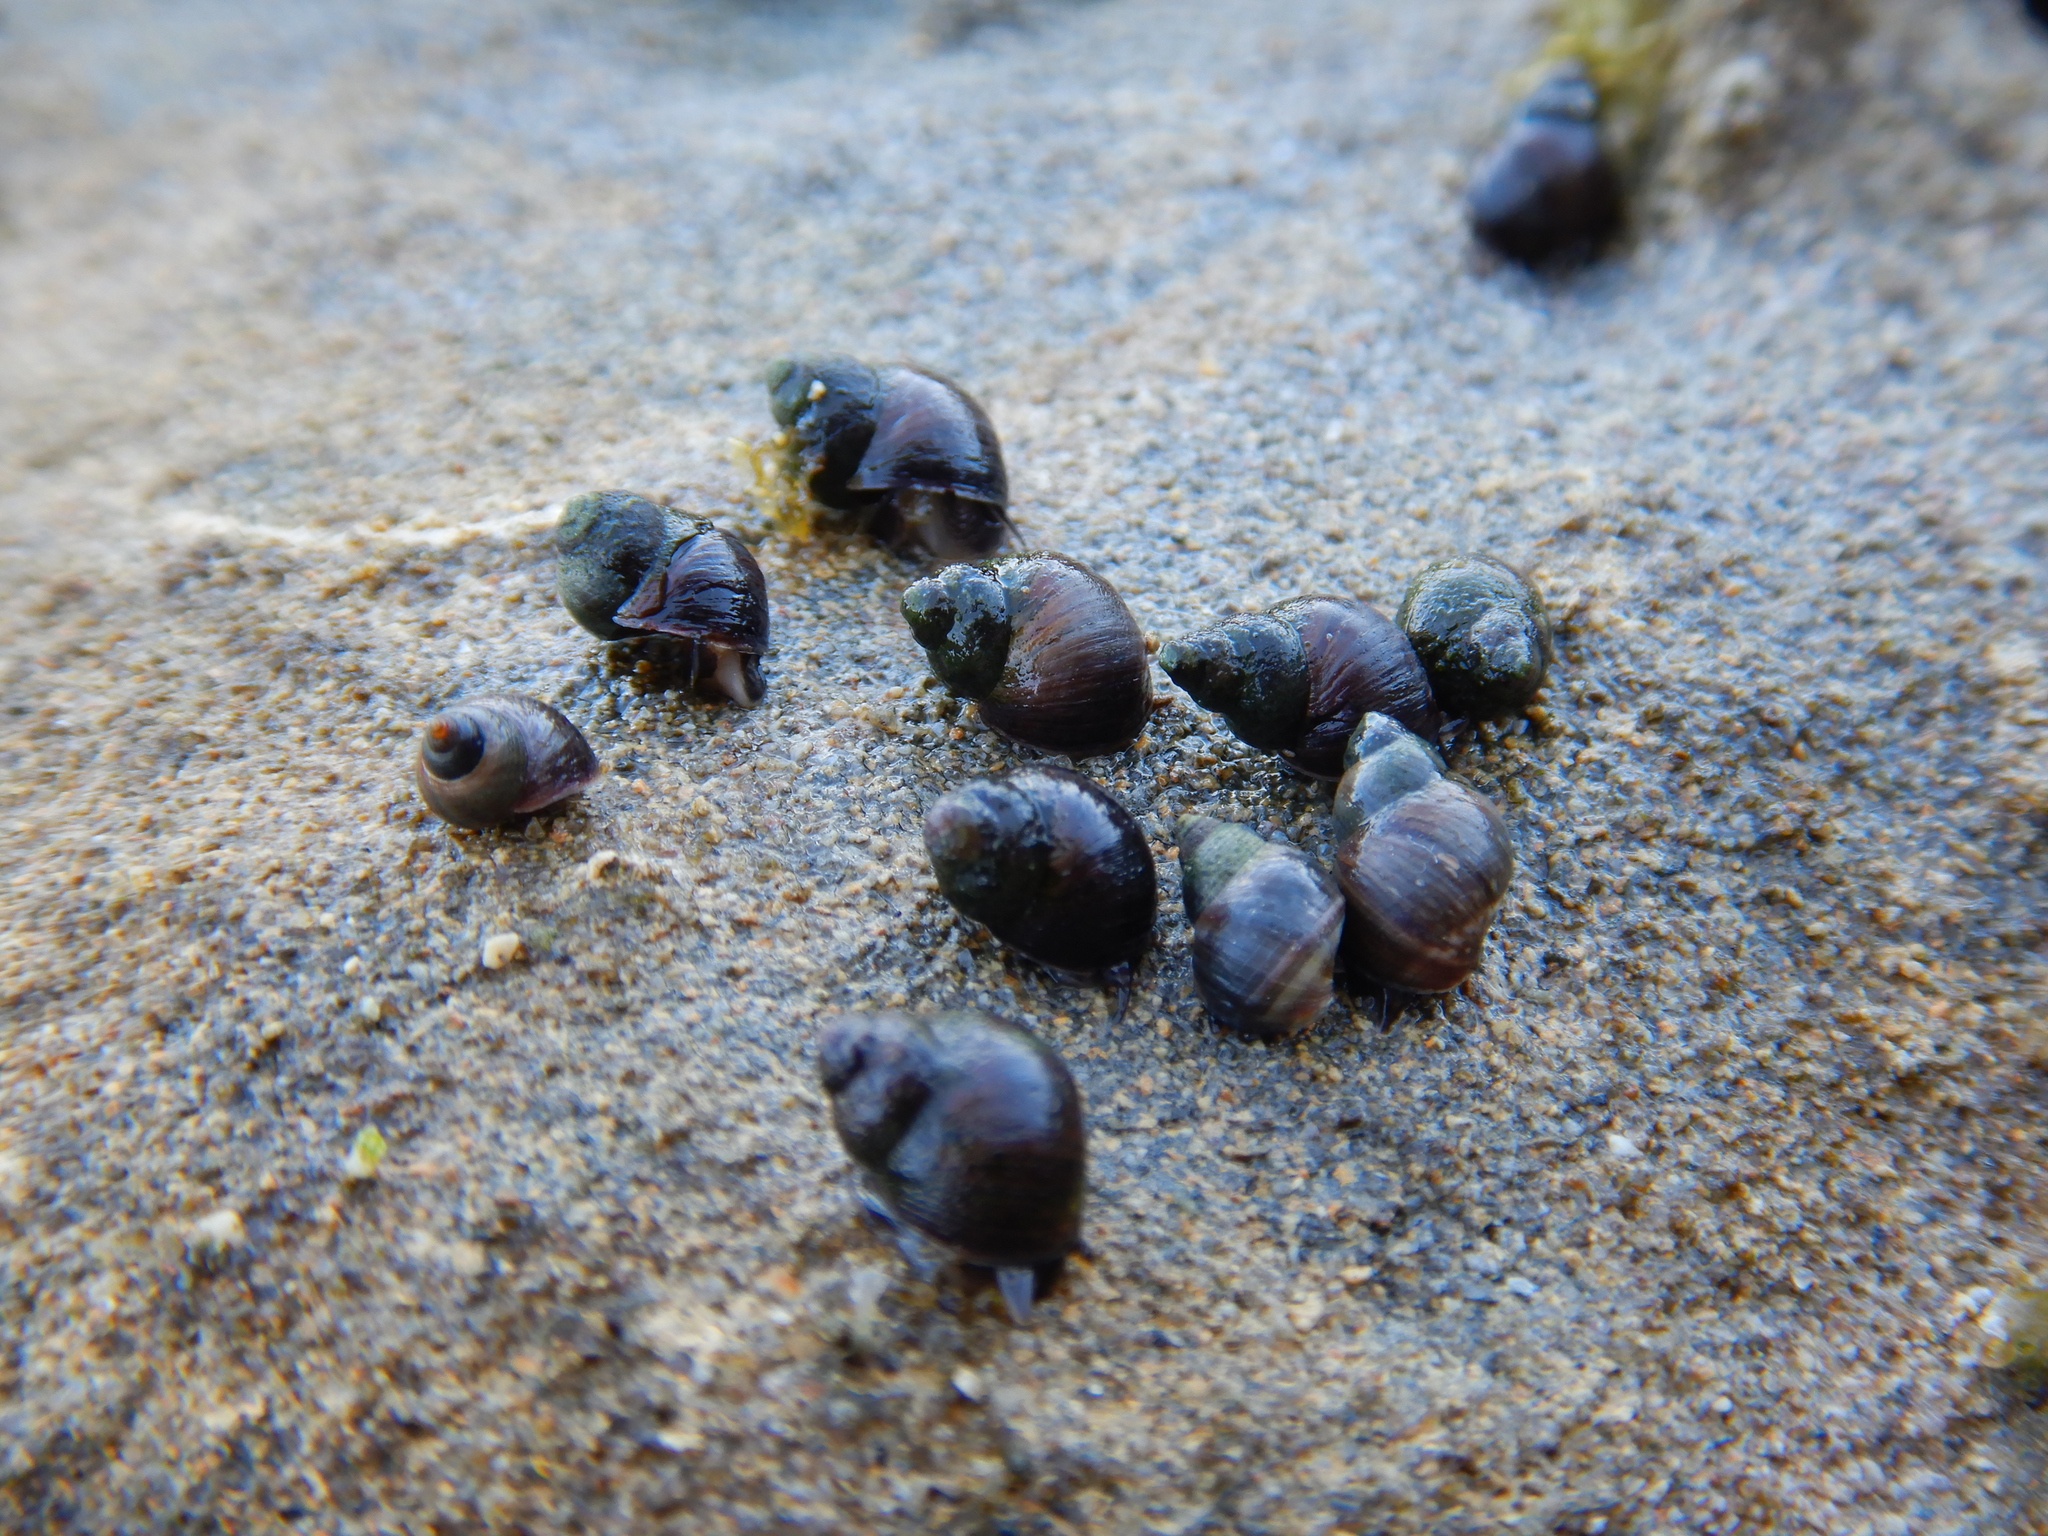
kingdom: Animalia
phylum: Mollusca
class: Gastropoda
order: Littorinimorpha
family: Littorinidae
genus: Austrolittorina
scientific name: Austrolittorina araucana
